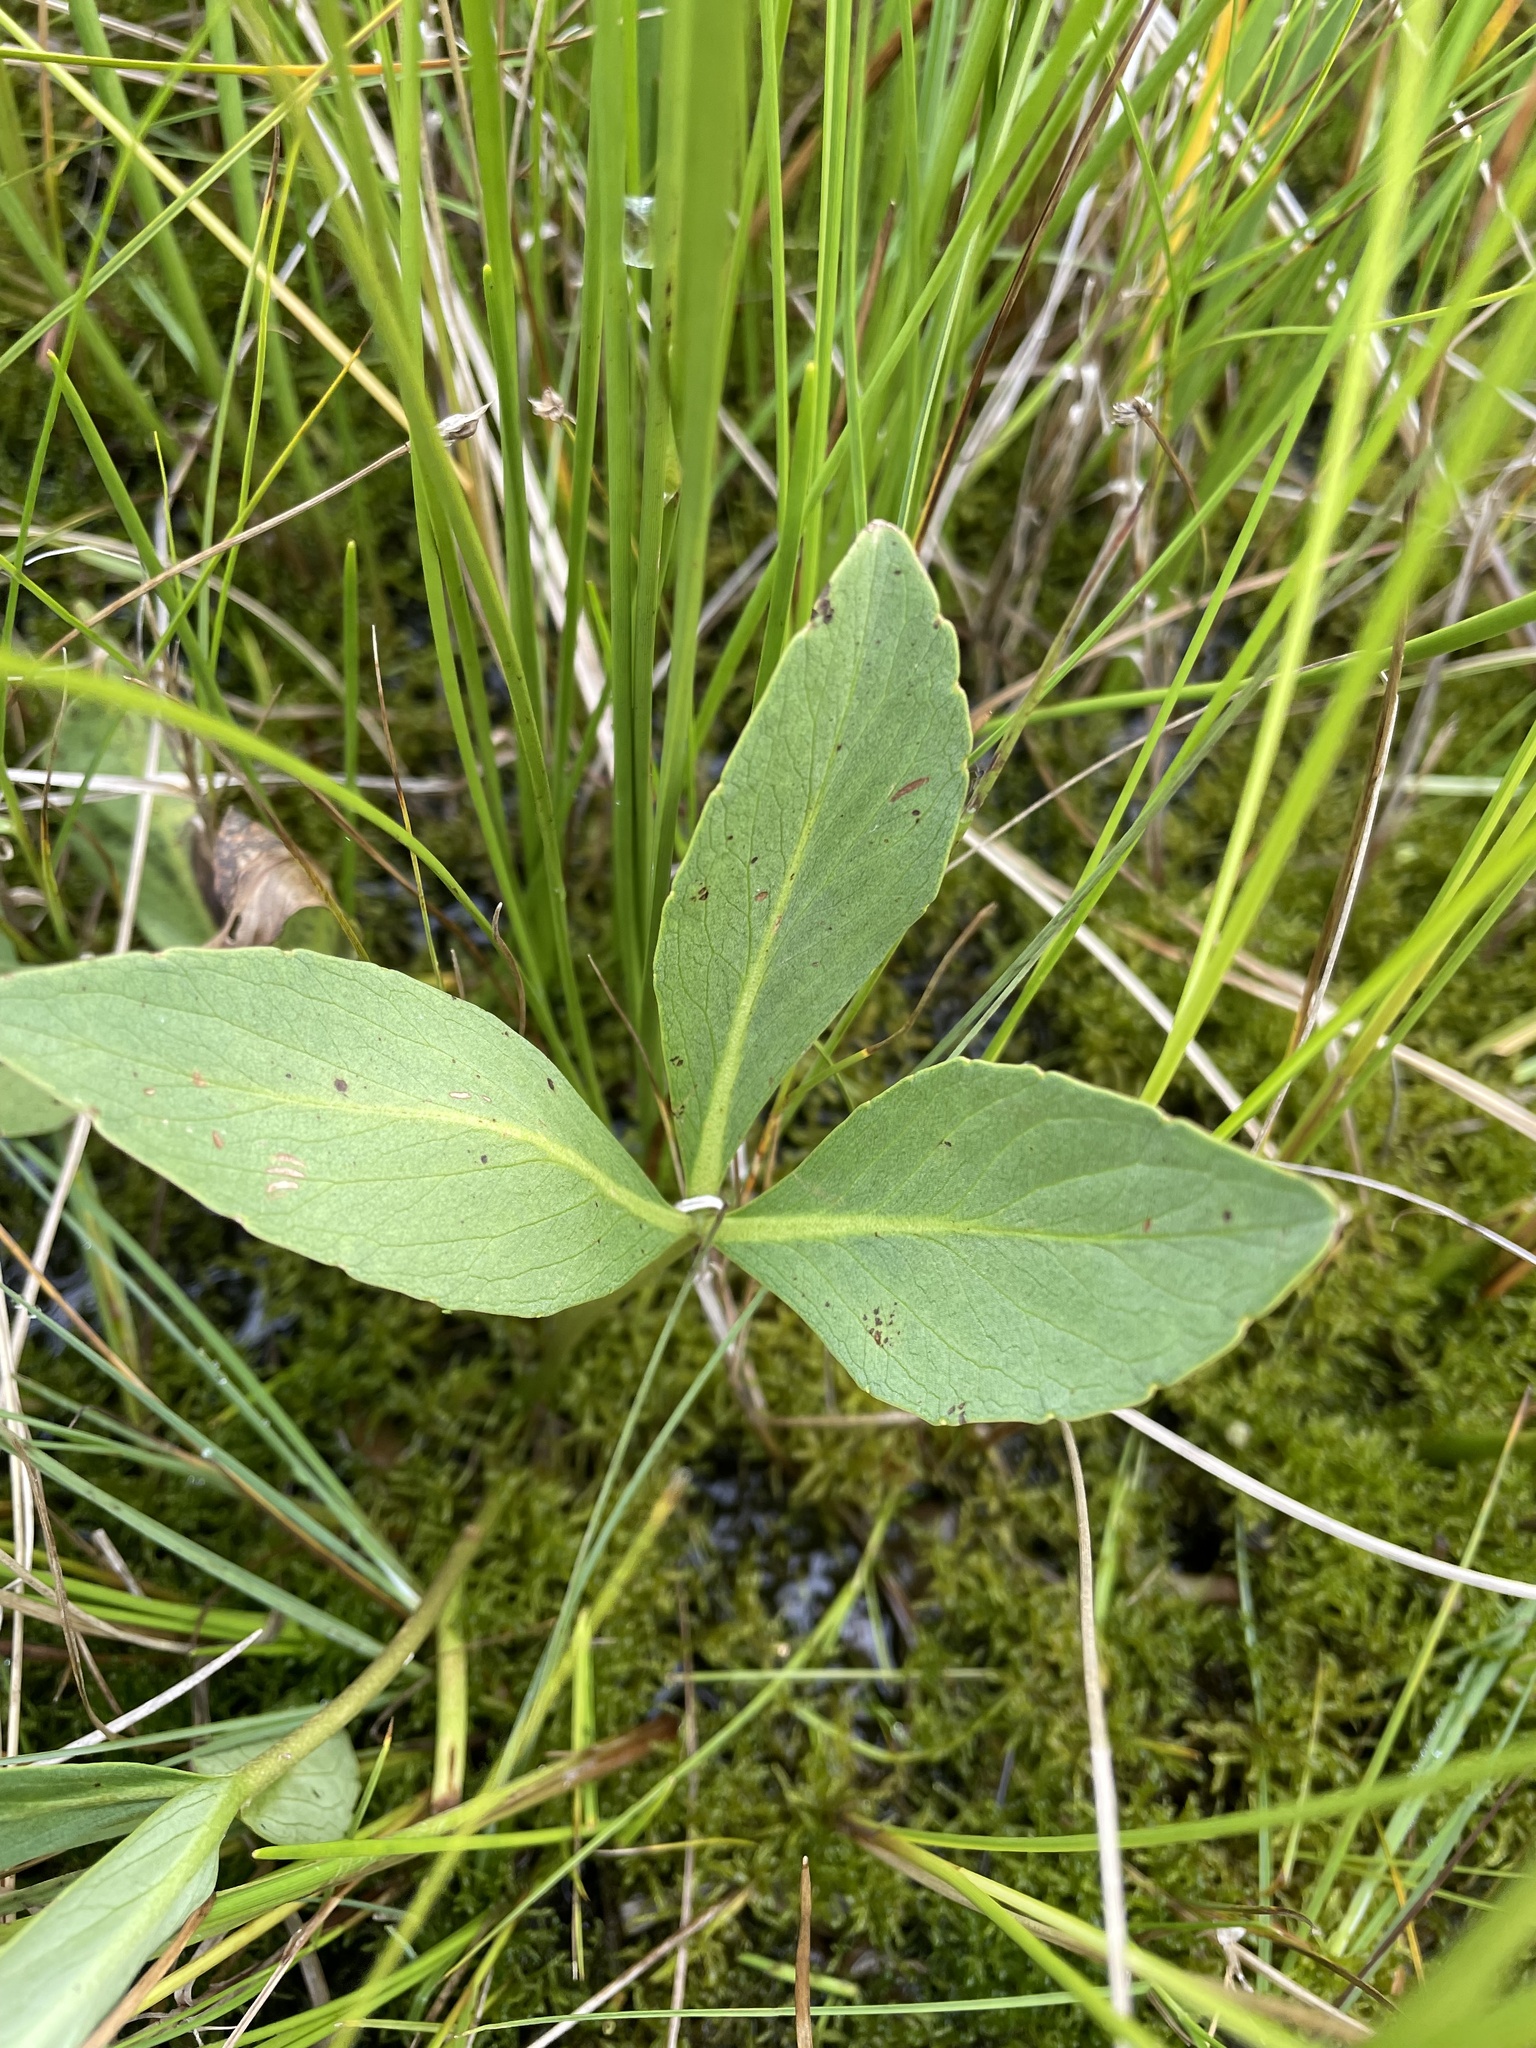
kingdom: Plantae
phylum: Tracheophyta
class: Magnoliopsida
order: Asterales
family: Menyanthaceae
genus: Menyanthes
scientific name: Menyanthes trifoliata
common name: Bogbean
